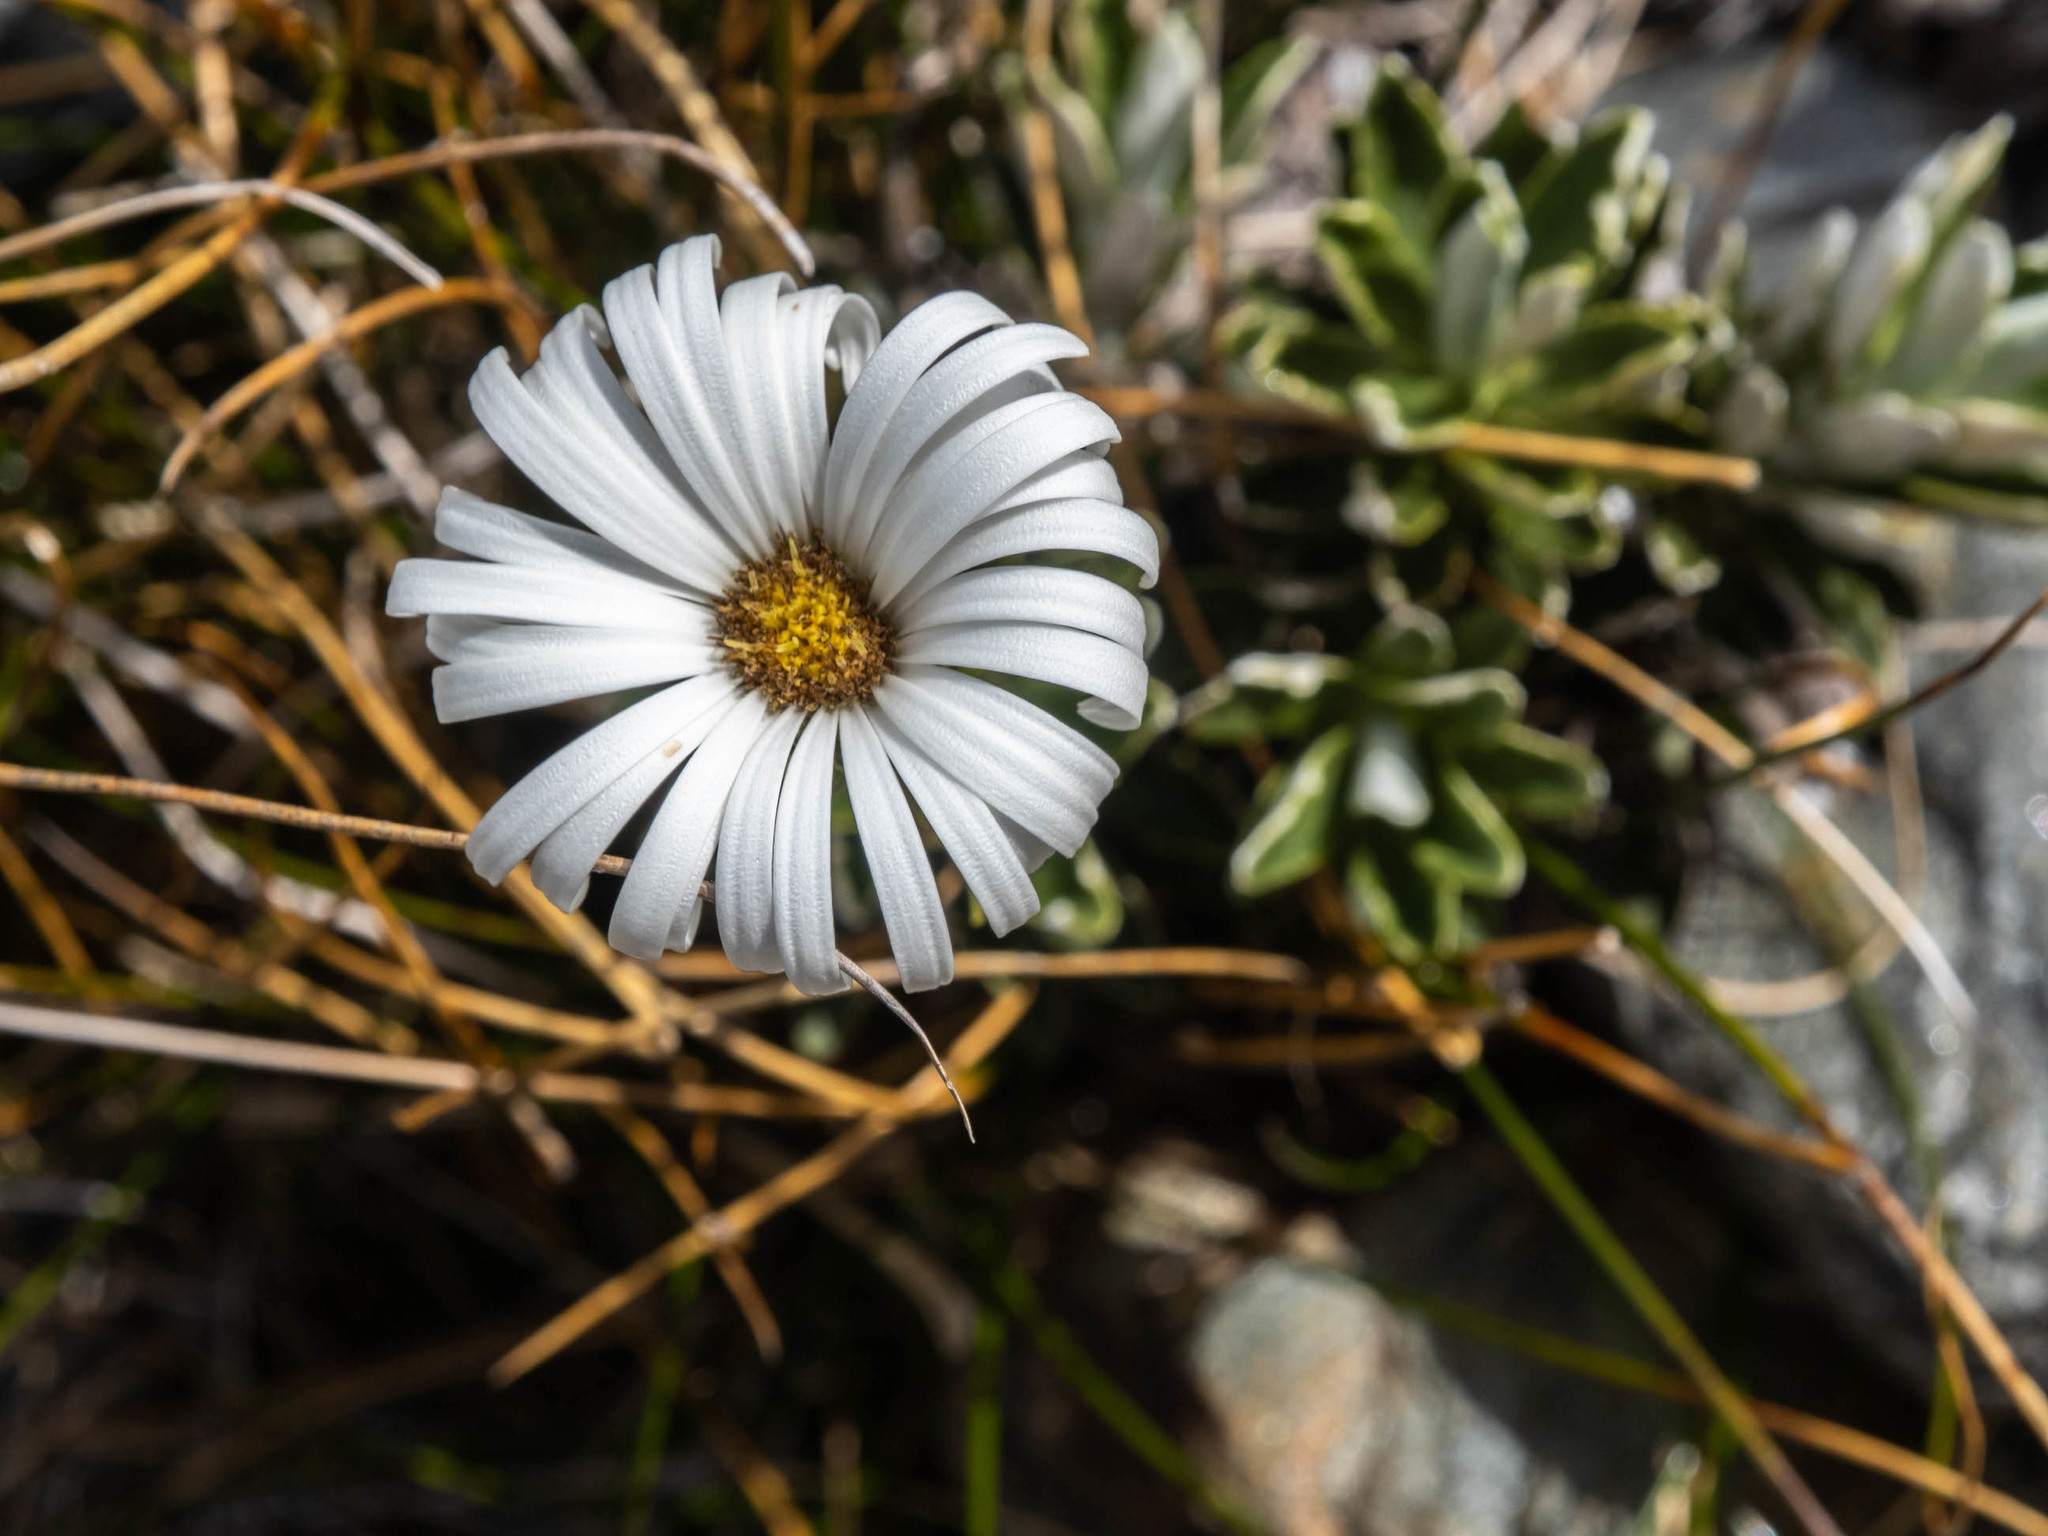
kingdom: Plantae
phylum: Tracheophyta
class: Magnoliopsida
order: Asterales
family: Asteraceae
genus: Celmisia
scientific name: Celmisia angustifolia
